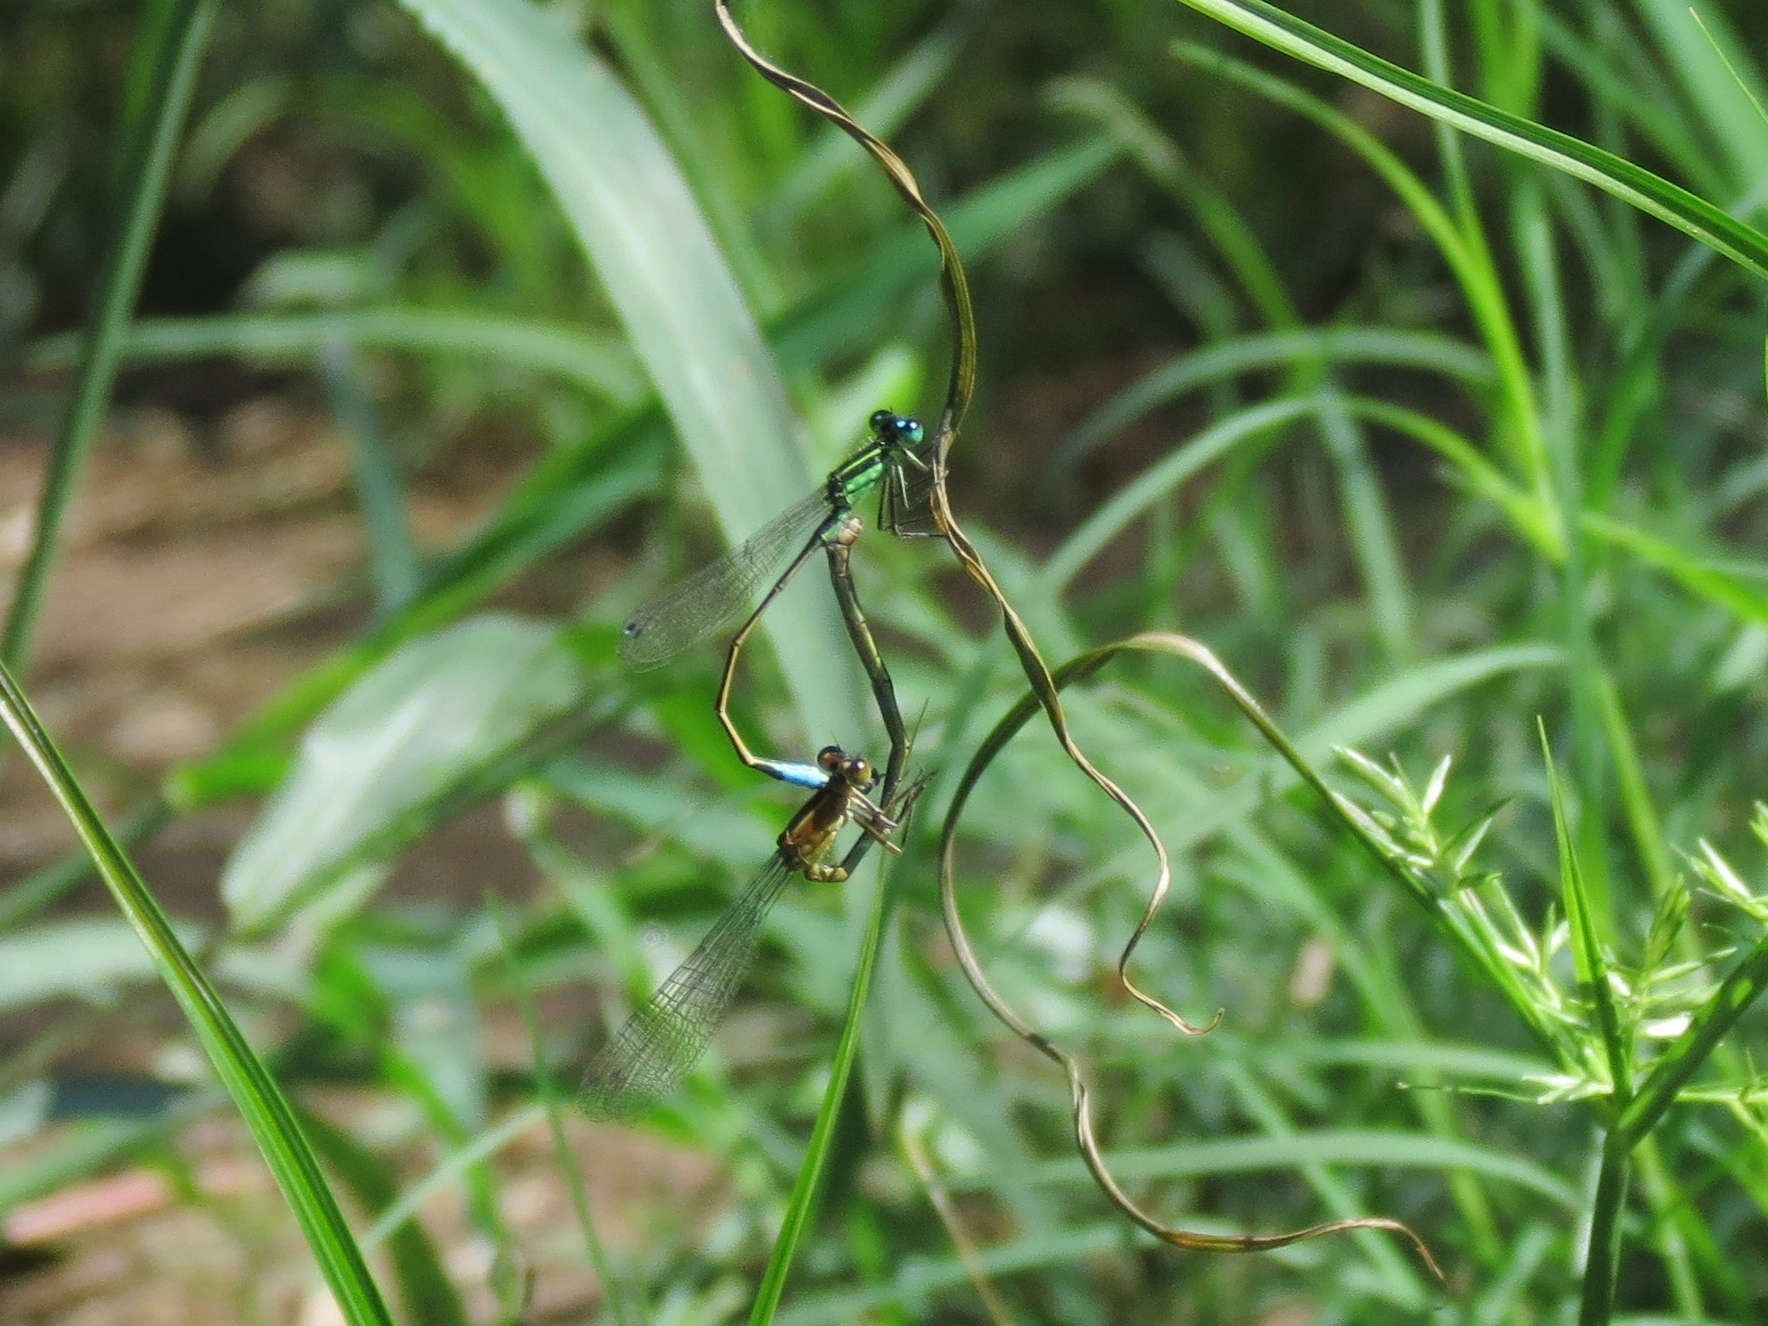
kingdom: Animalia
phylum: Arthropoda
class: Insecta
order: Odonata
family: Coenagrionidae
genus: Ischnura
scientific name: Ischnura ramburii
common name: Rambur's forktail
